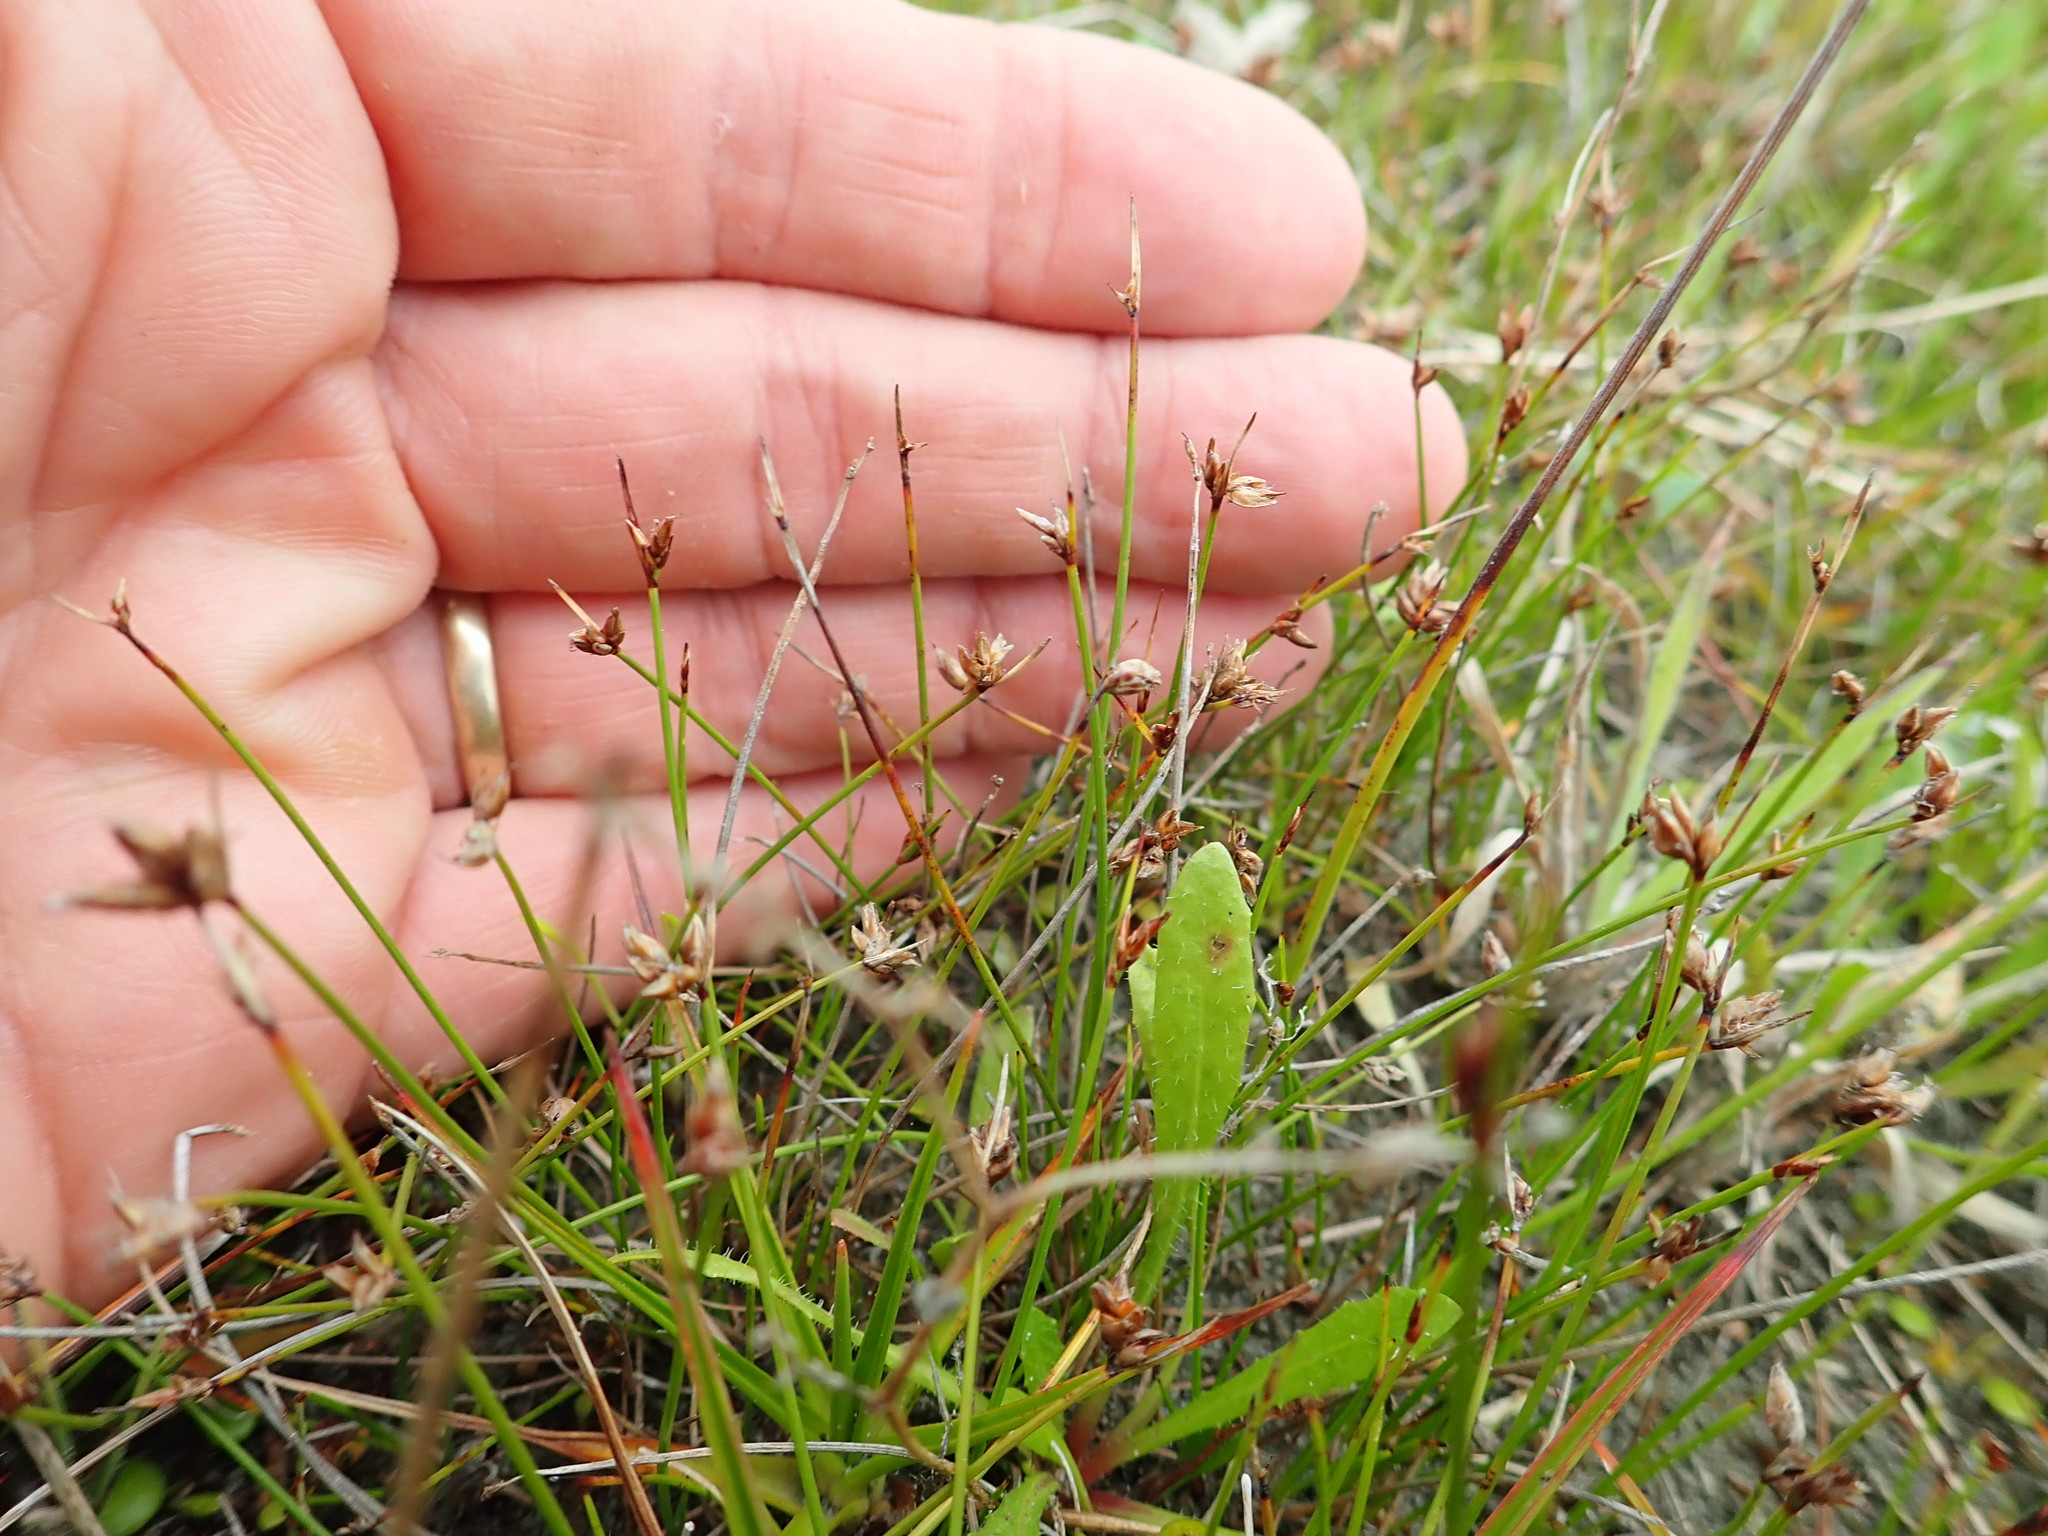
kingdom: Plantae
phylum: Tracheophyta
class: Liliopsida
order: Poales
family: Cyperaceae
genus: Schoenus
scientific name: Schoenus nitens
